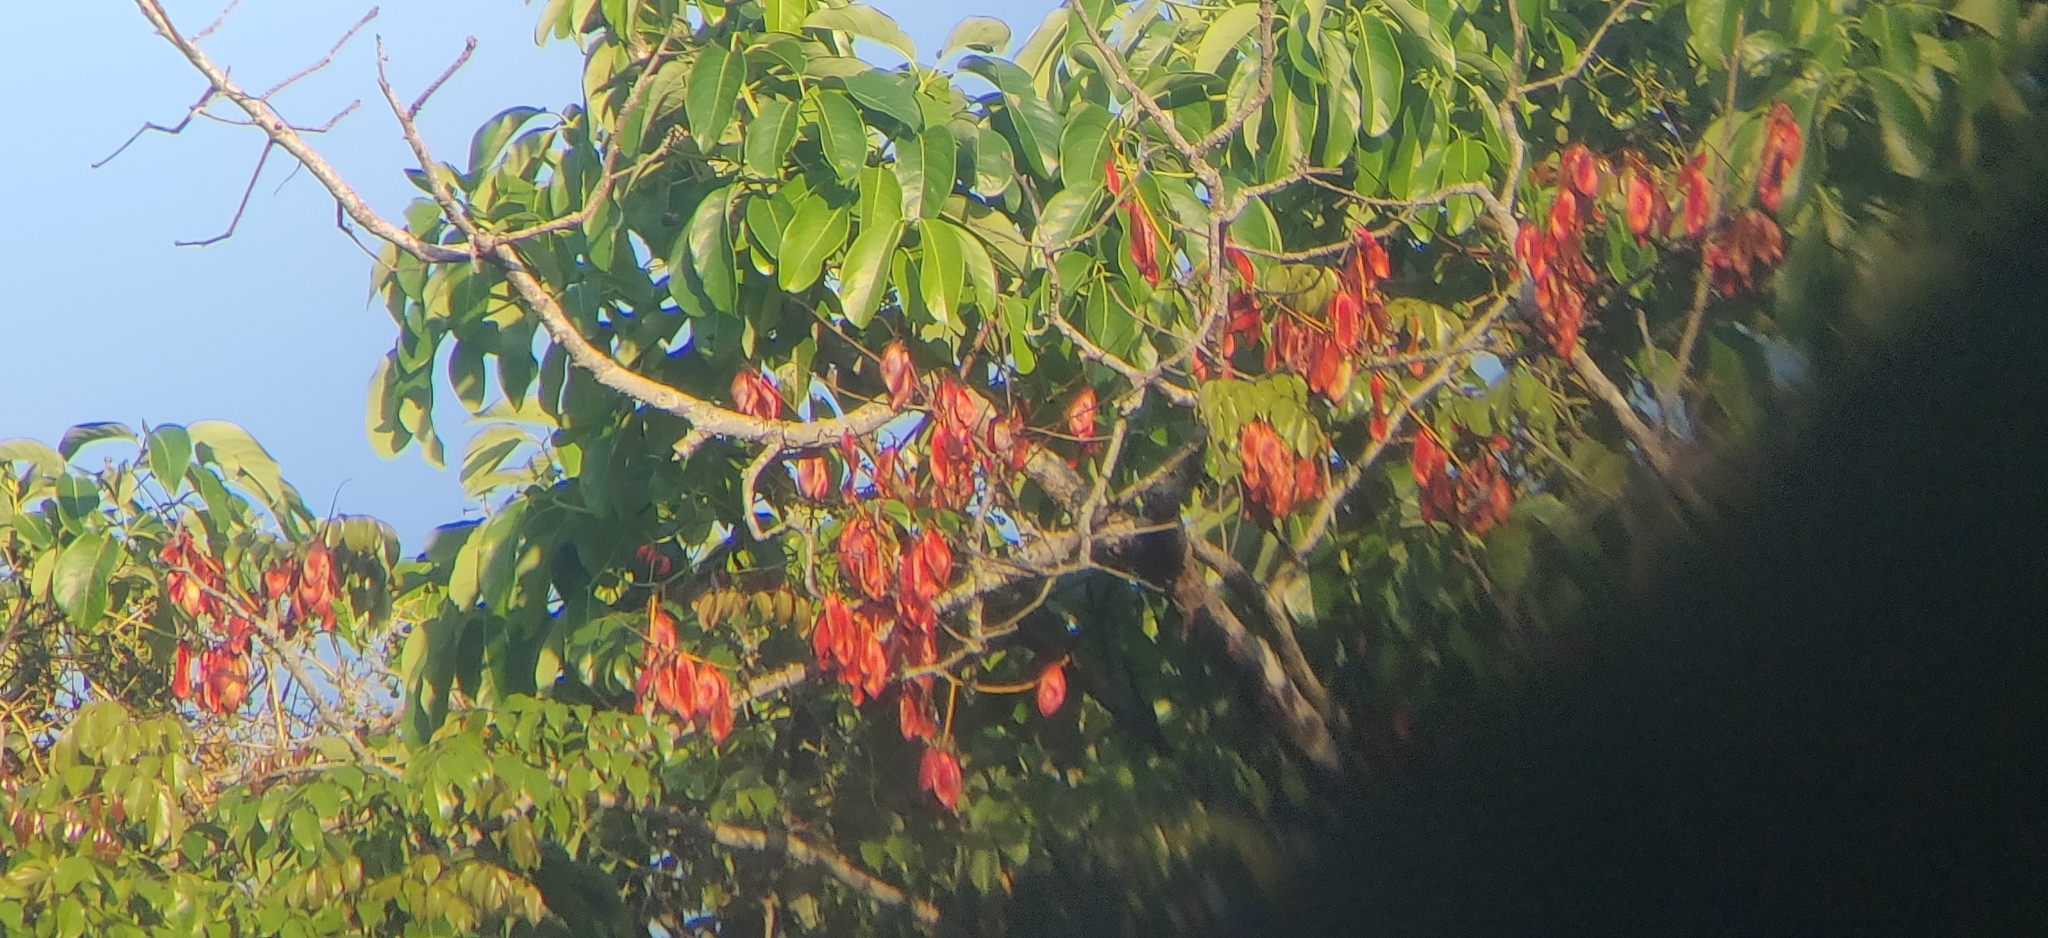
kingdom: Plantae
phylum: Tracheophyta
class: Magnoliopsida
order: Fabales
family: Fabaceae
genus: Mezoneuron
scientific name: Mezoneuron cucullatum
